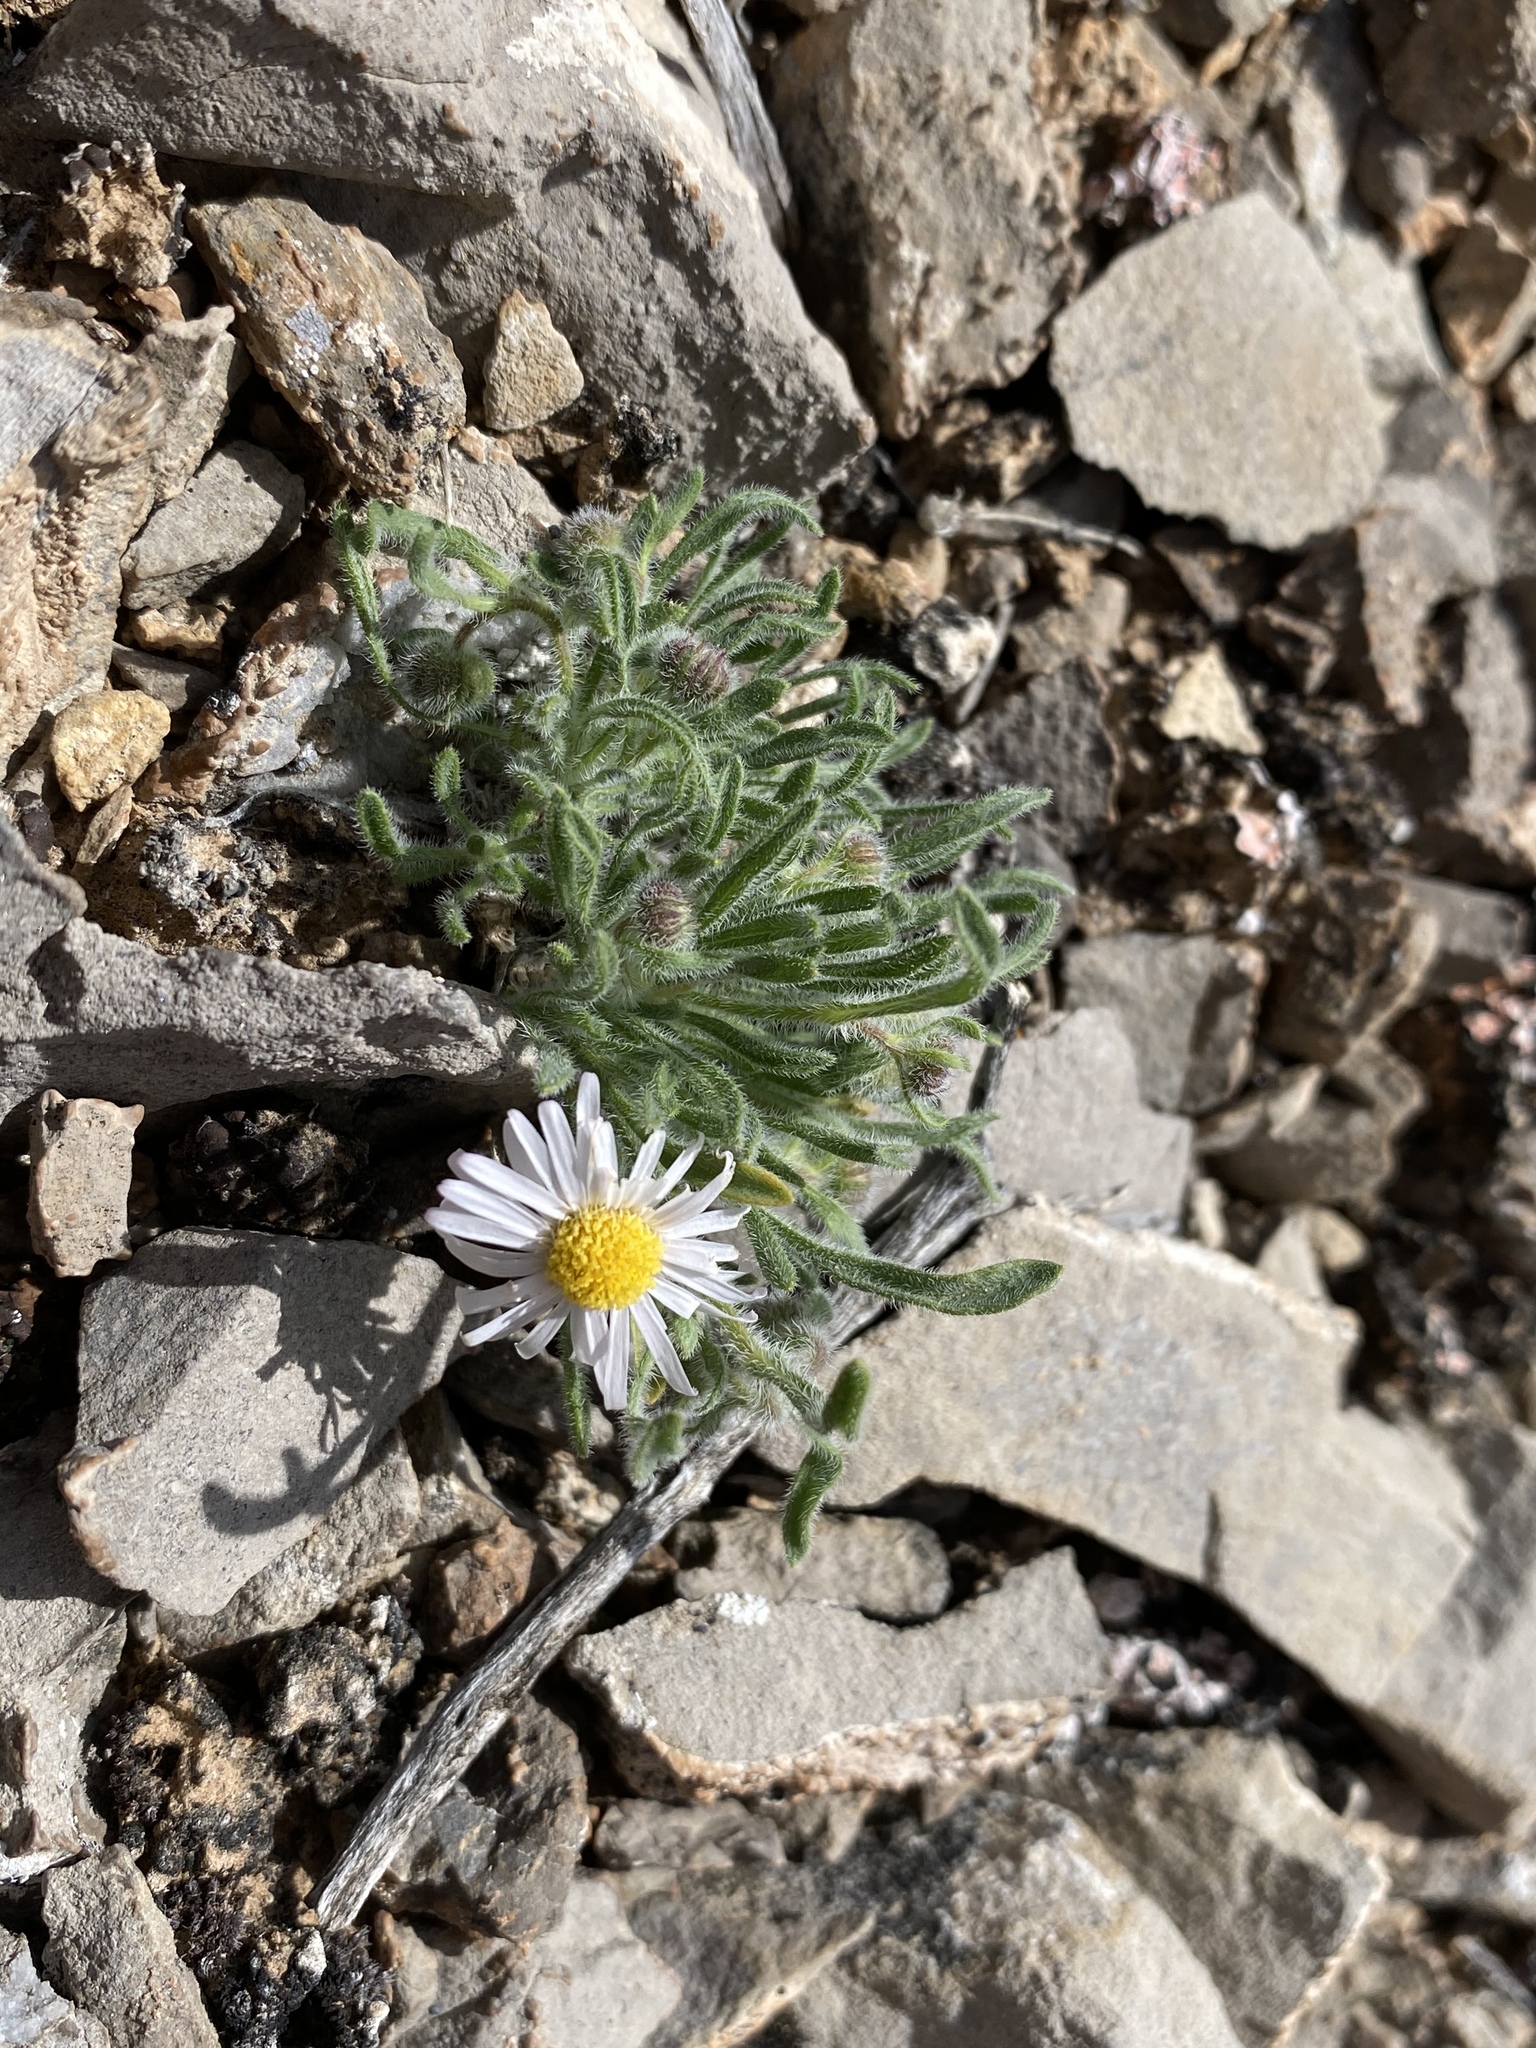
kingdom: Plantae
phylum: Tracheophyta
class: Magnoliopsida
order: Asterales
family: Asteraceae
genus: Erigeron
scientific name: Erigeron concinnus
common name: Navajo fleabane
